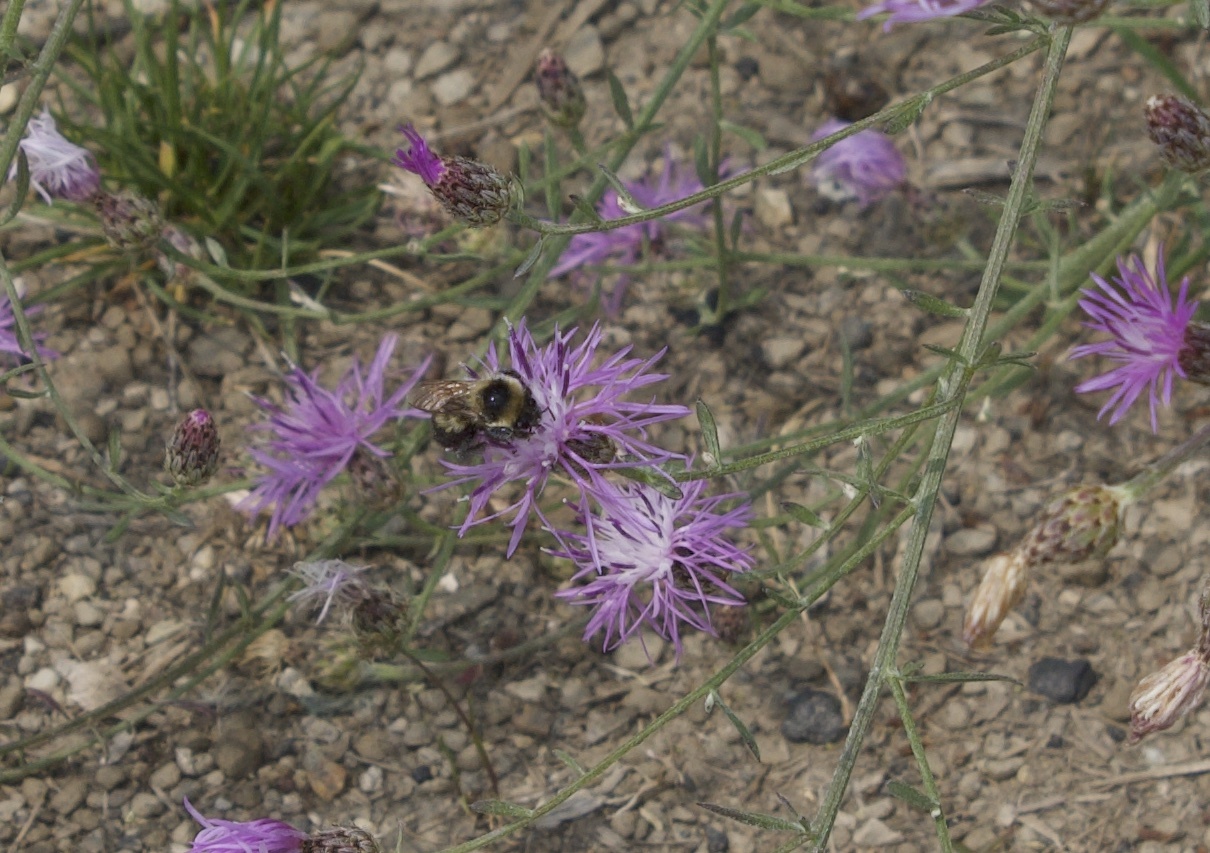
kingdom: Animalia
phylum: Arthropoda
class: Insecta
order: Hymenoptera
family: Apidae
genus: Bombus
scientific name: Bombus rufocinctus
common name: Red-belted bumble bee
